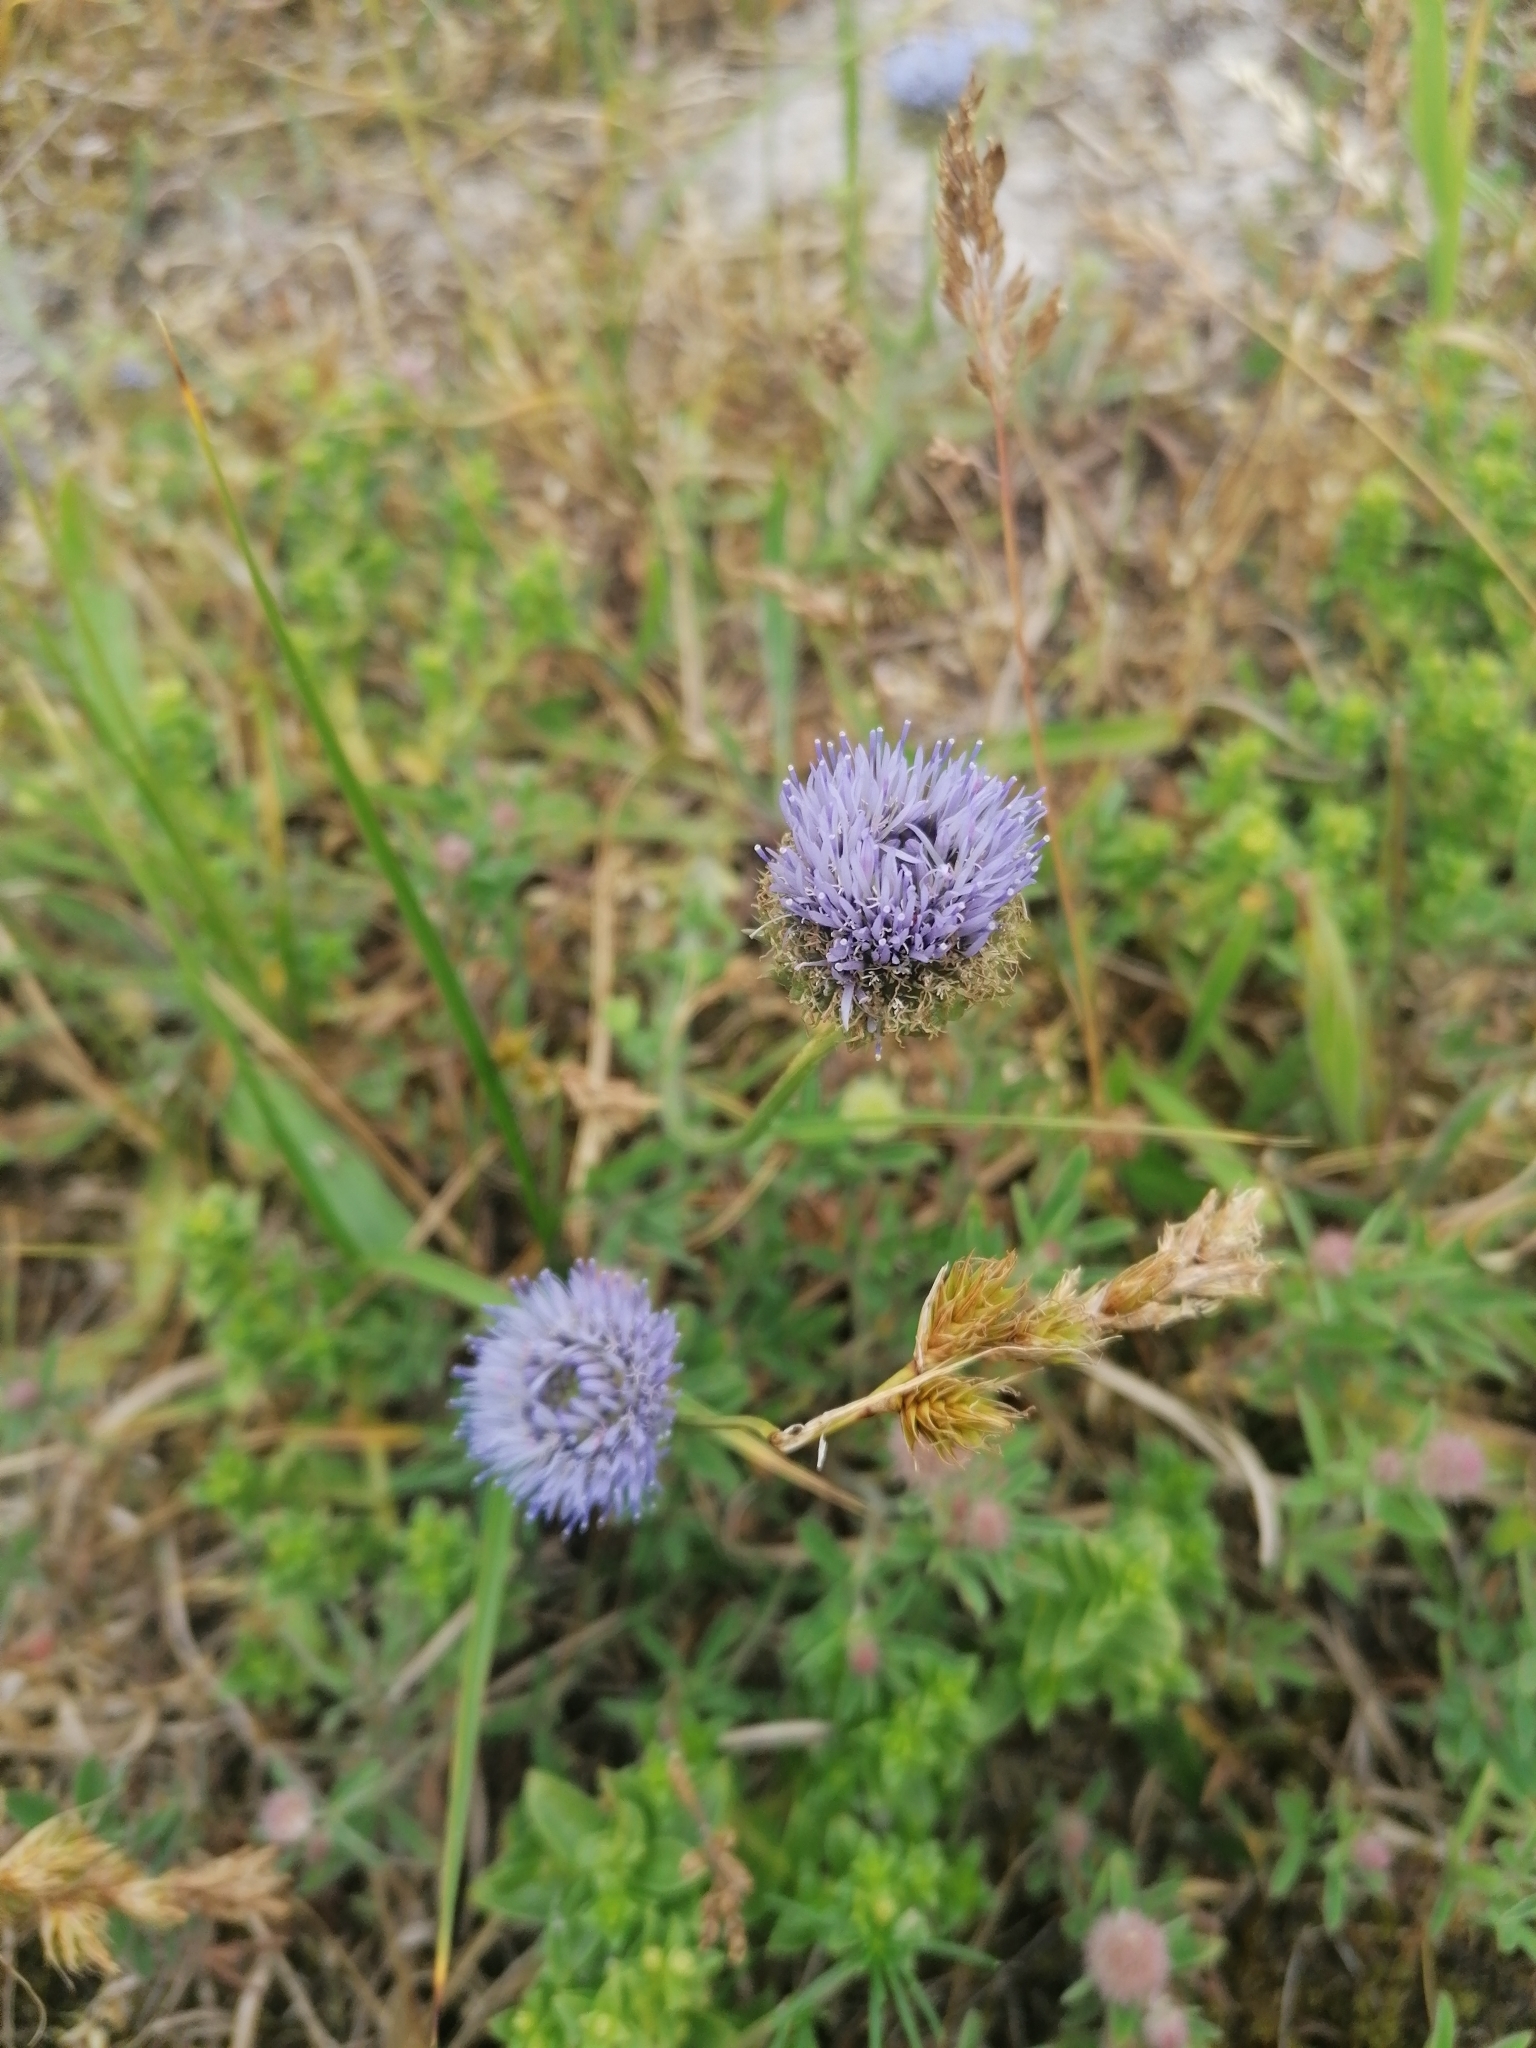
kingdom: Plantae
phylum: Tracheophyta
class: Magnoliopsida
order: Asterales
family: Campanulaceae
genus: Jasione
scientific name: Jasione montana
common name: Sheep's-bit
